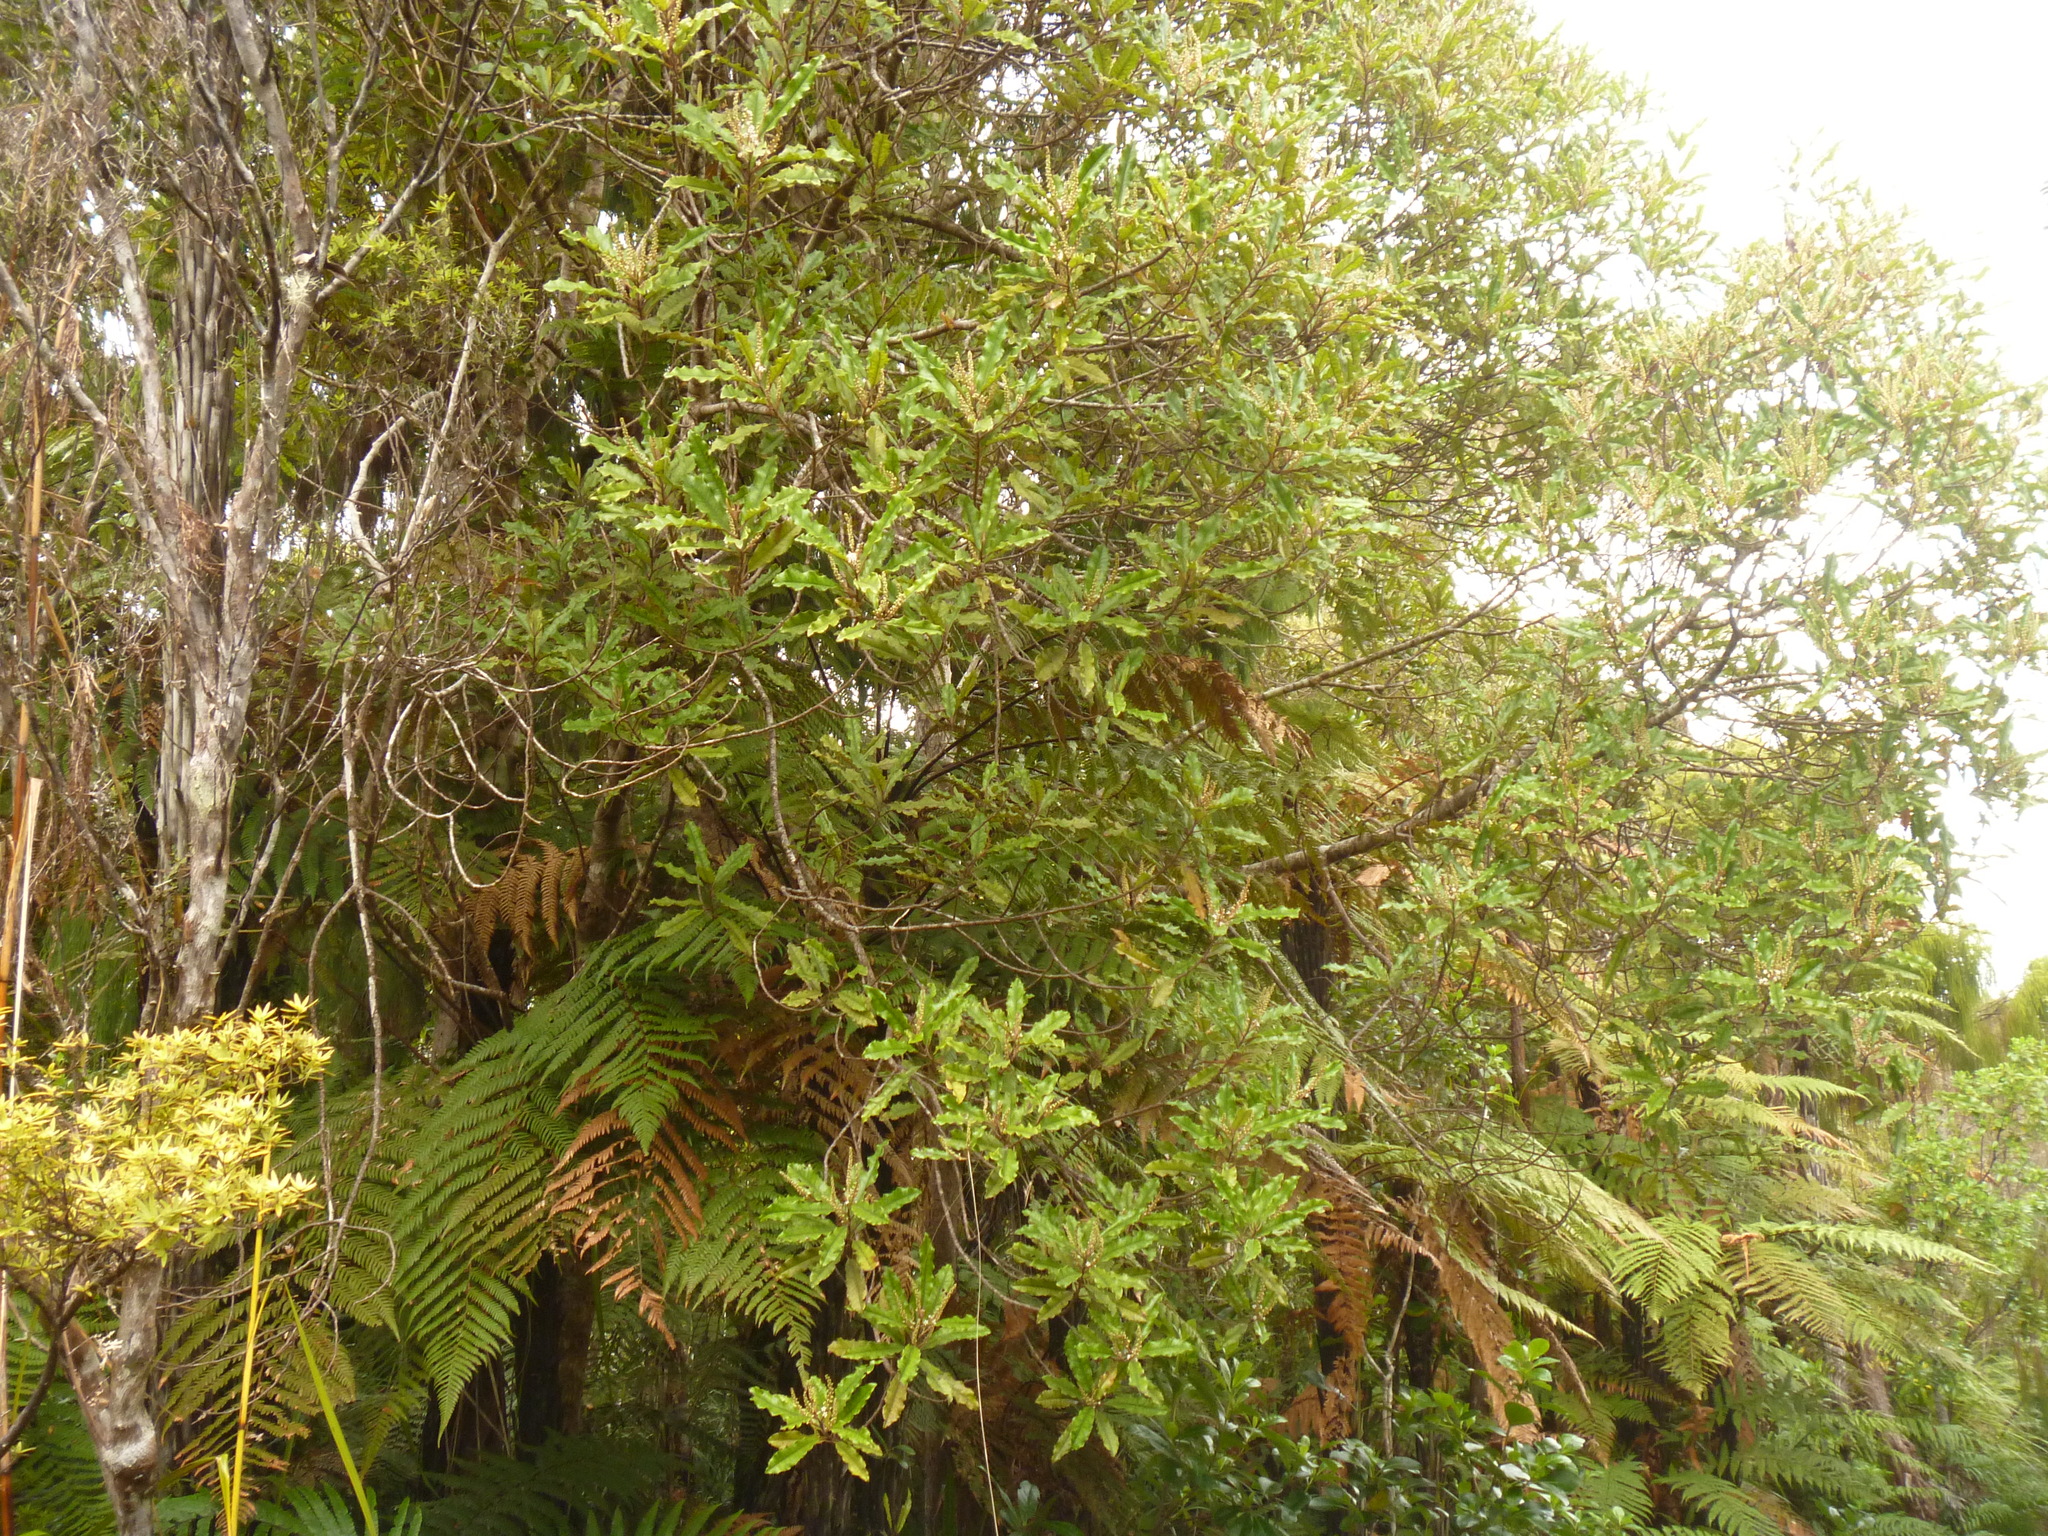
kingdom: Plantae
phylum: Tracheophyta
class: Magnoliopsida
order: Paracryphiales
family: Paracryphiaceae
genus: Quintinia
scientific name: Quintinia serrata
